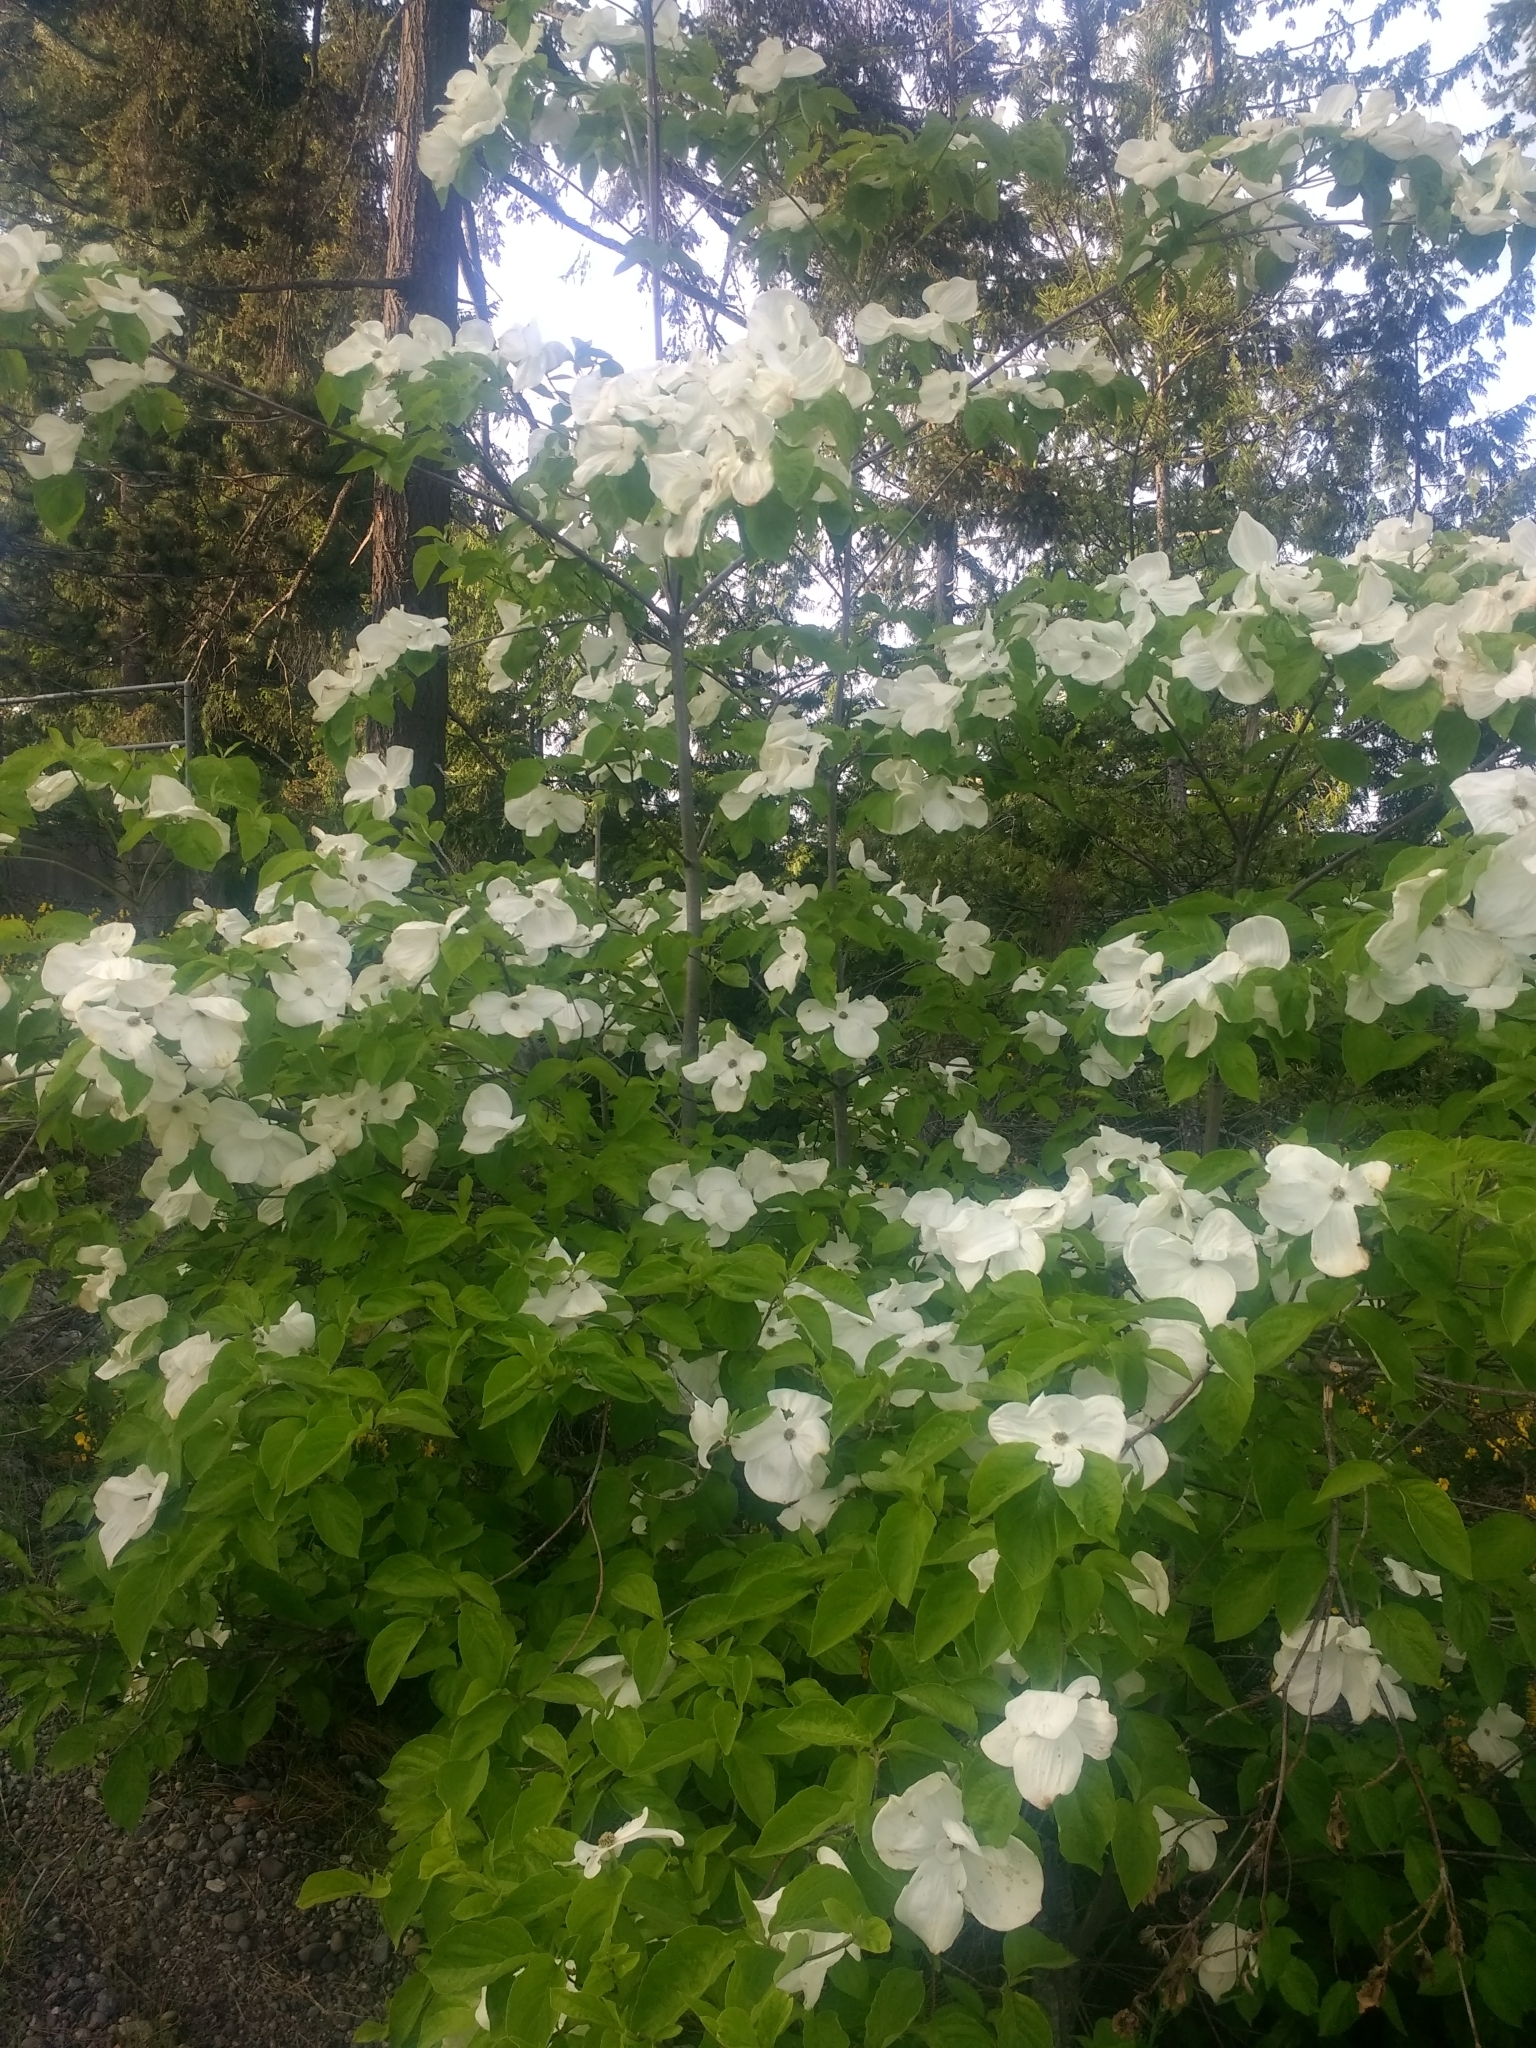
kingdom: Plantae
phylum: Tracheophyta
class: Magnoliopsida
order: Cornales
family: Cornaceae
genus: Cornus
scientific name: Cornus nuttallii
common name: Pacific dogwood
